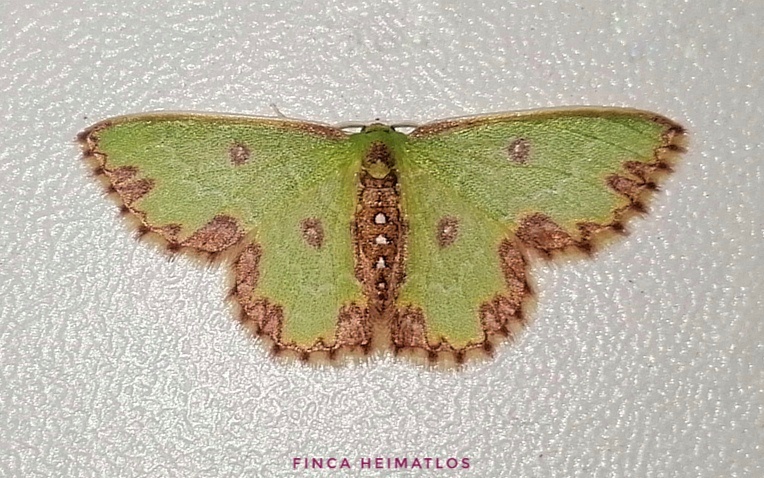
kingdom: Animalia
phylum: Arthropoda
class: Insecta
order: Lepidoptera
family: Geometridae
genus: Synchlora
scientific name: Synchlora atrapes
